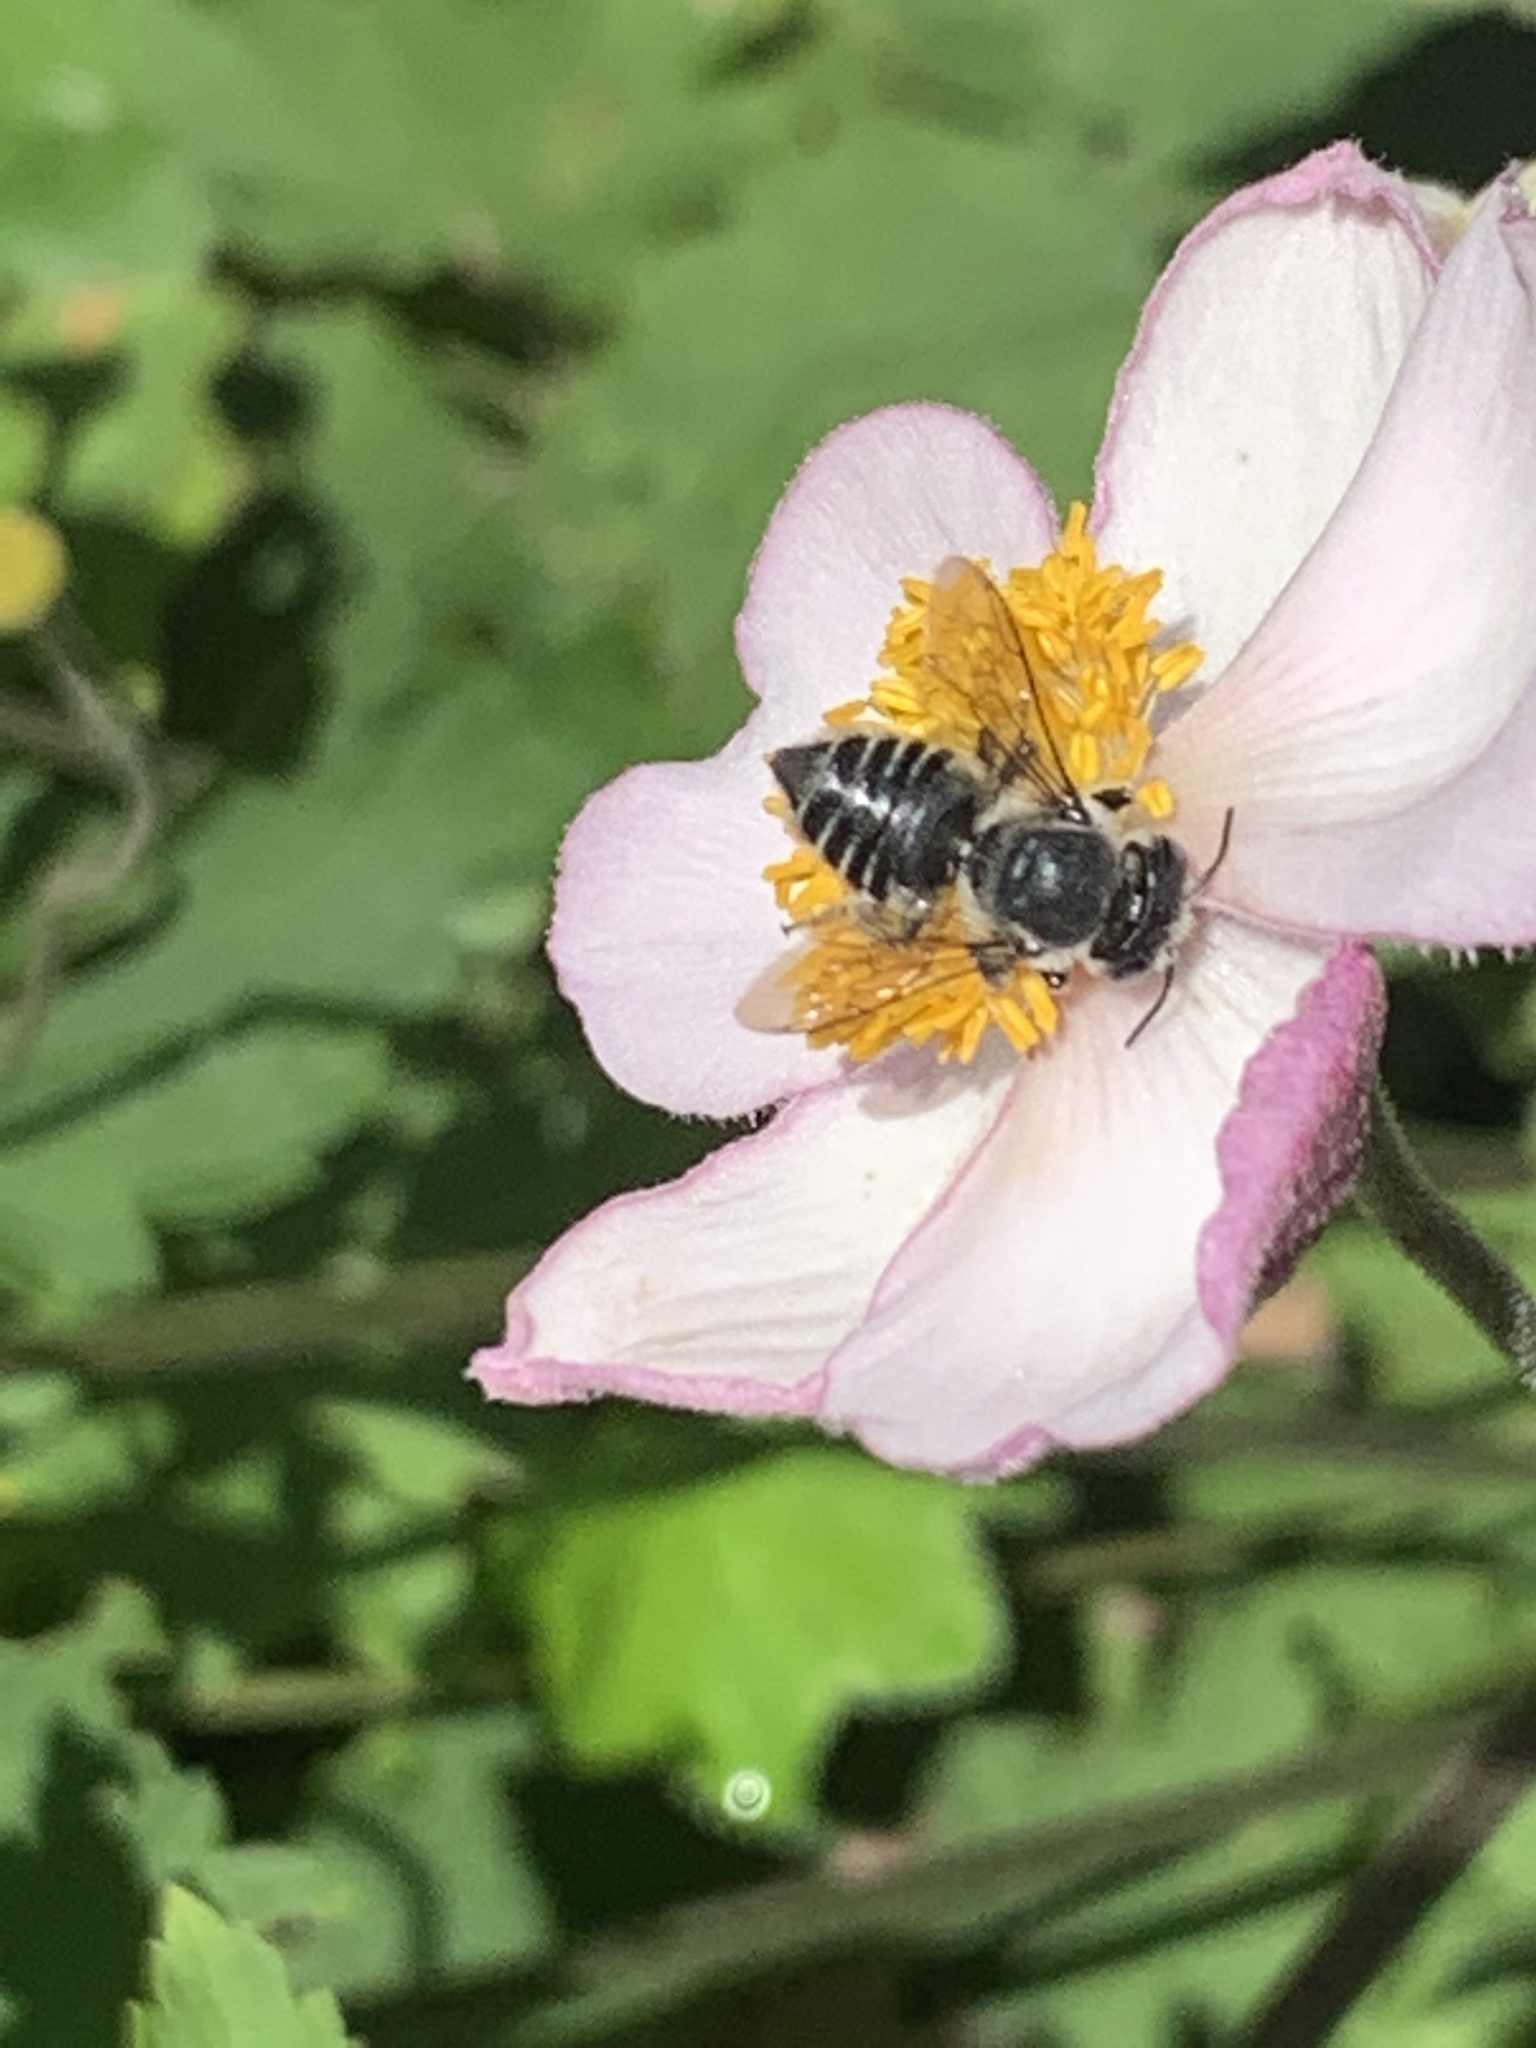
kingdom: Animalia
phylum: Arthropoda
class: Insecta
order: Hymenoptera
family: Megachilidae
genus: Megachile
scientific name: Megachile mendica
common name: Flat-tailed leafcutter
